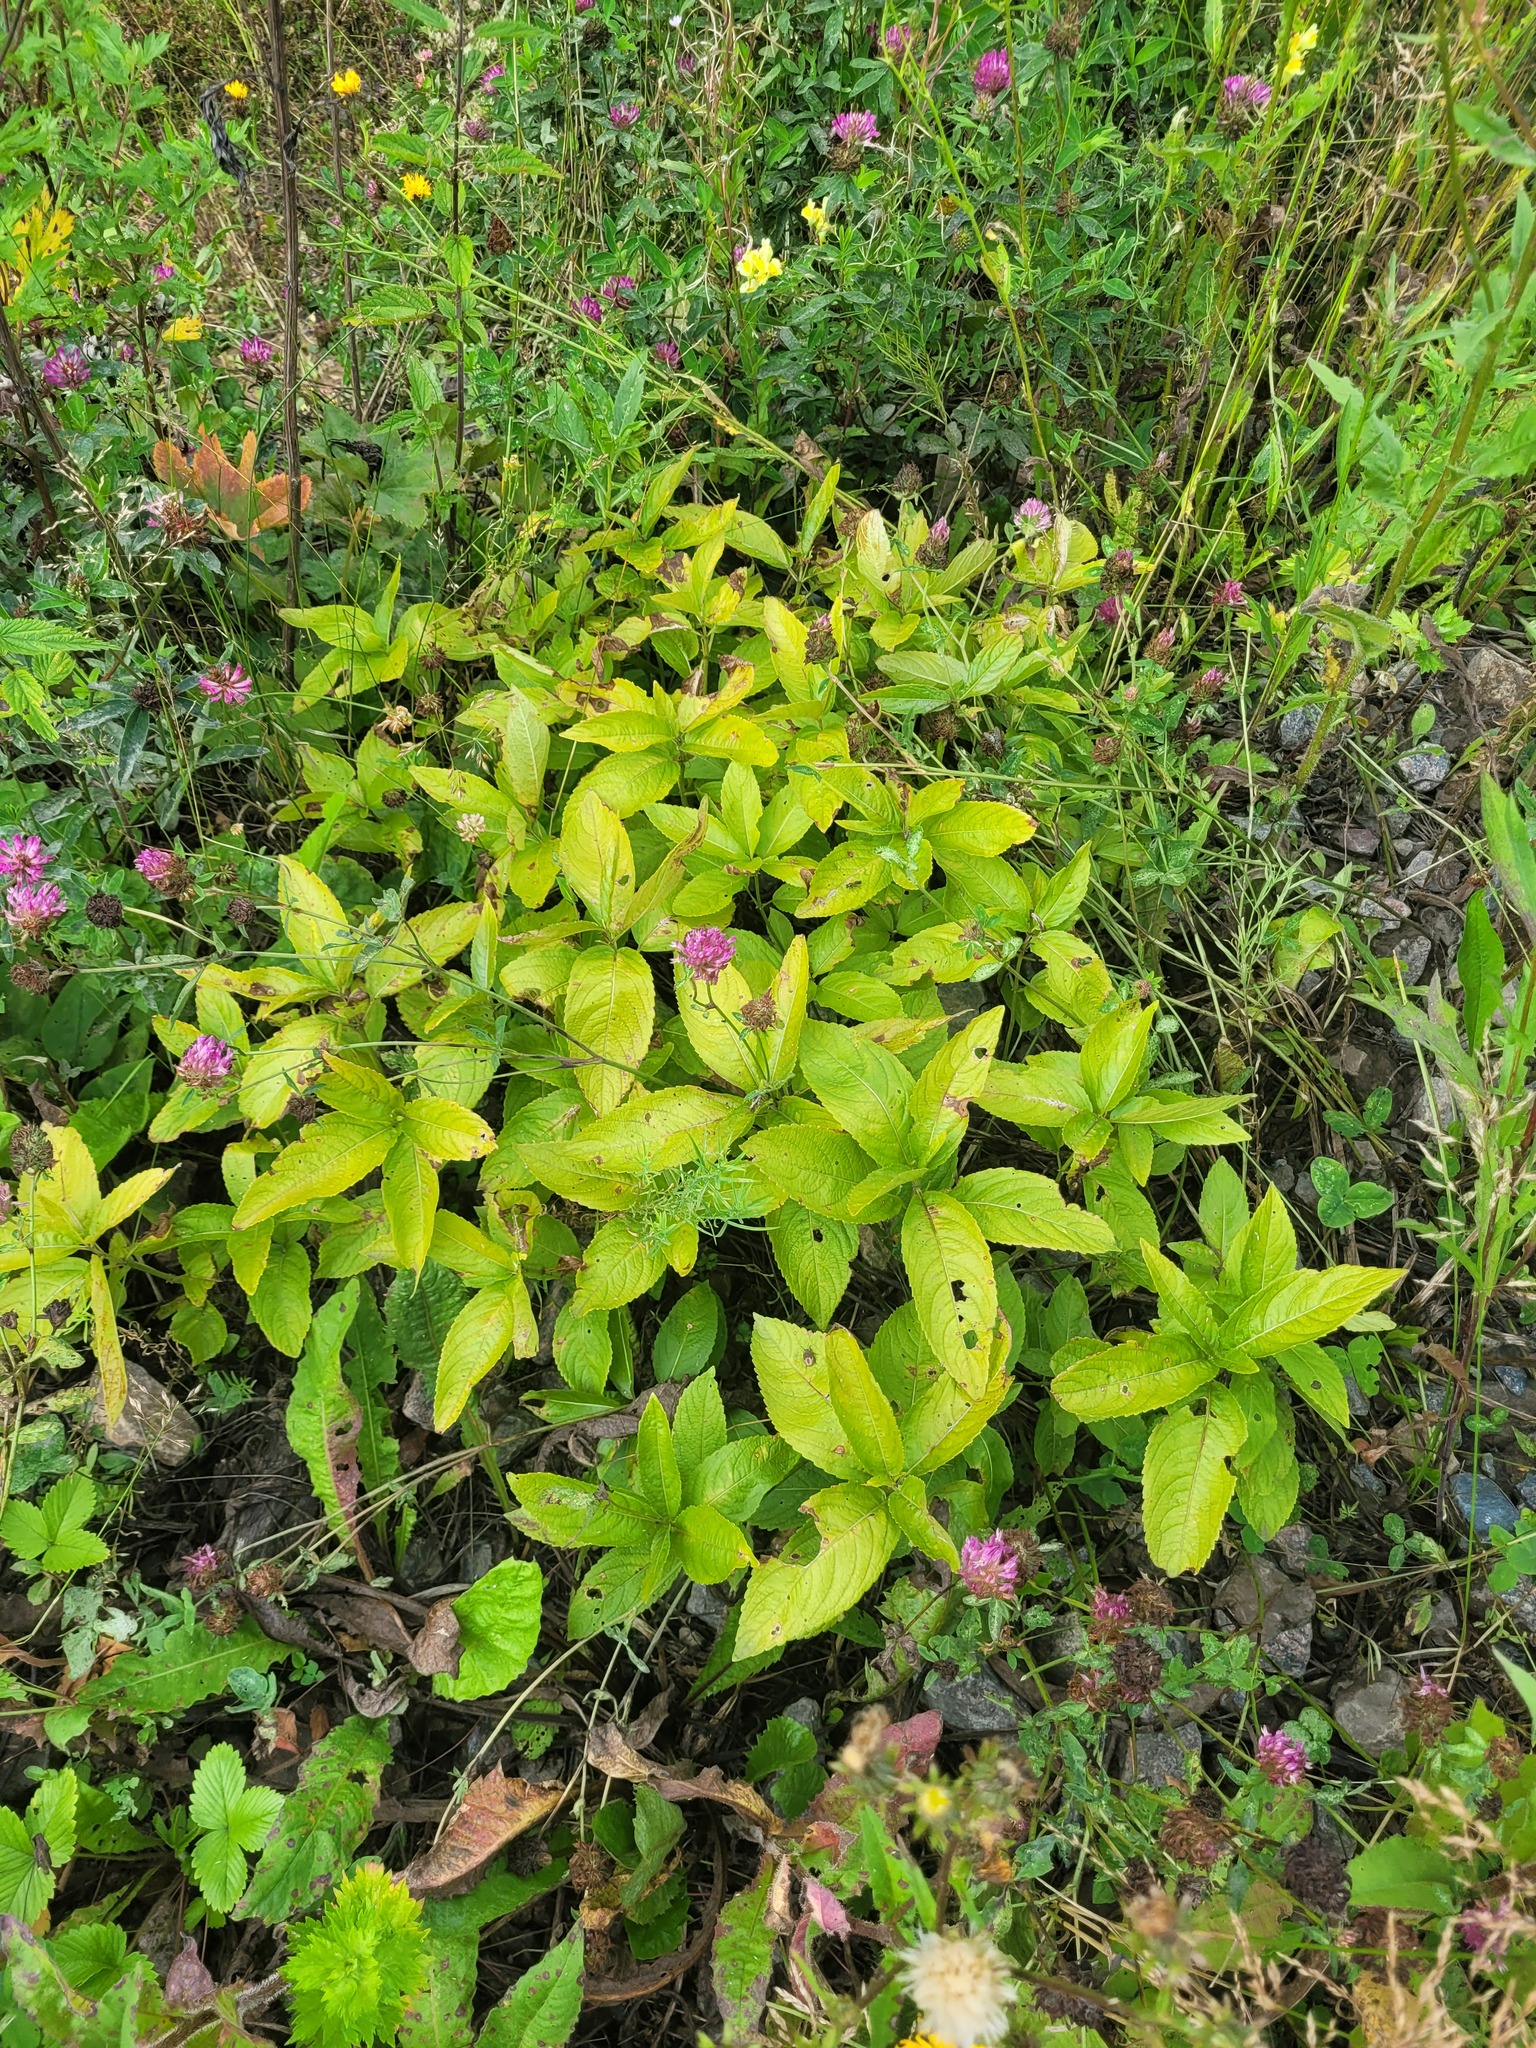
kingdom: Plantae
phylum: Tracheophyta
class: Magnoliopsida
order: Malpighiales
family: Euphorbiaceae
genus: Mercurialis
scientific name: Mercurialis perennis
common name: Dog mercury
